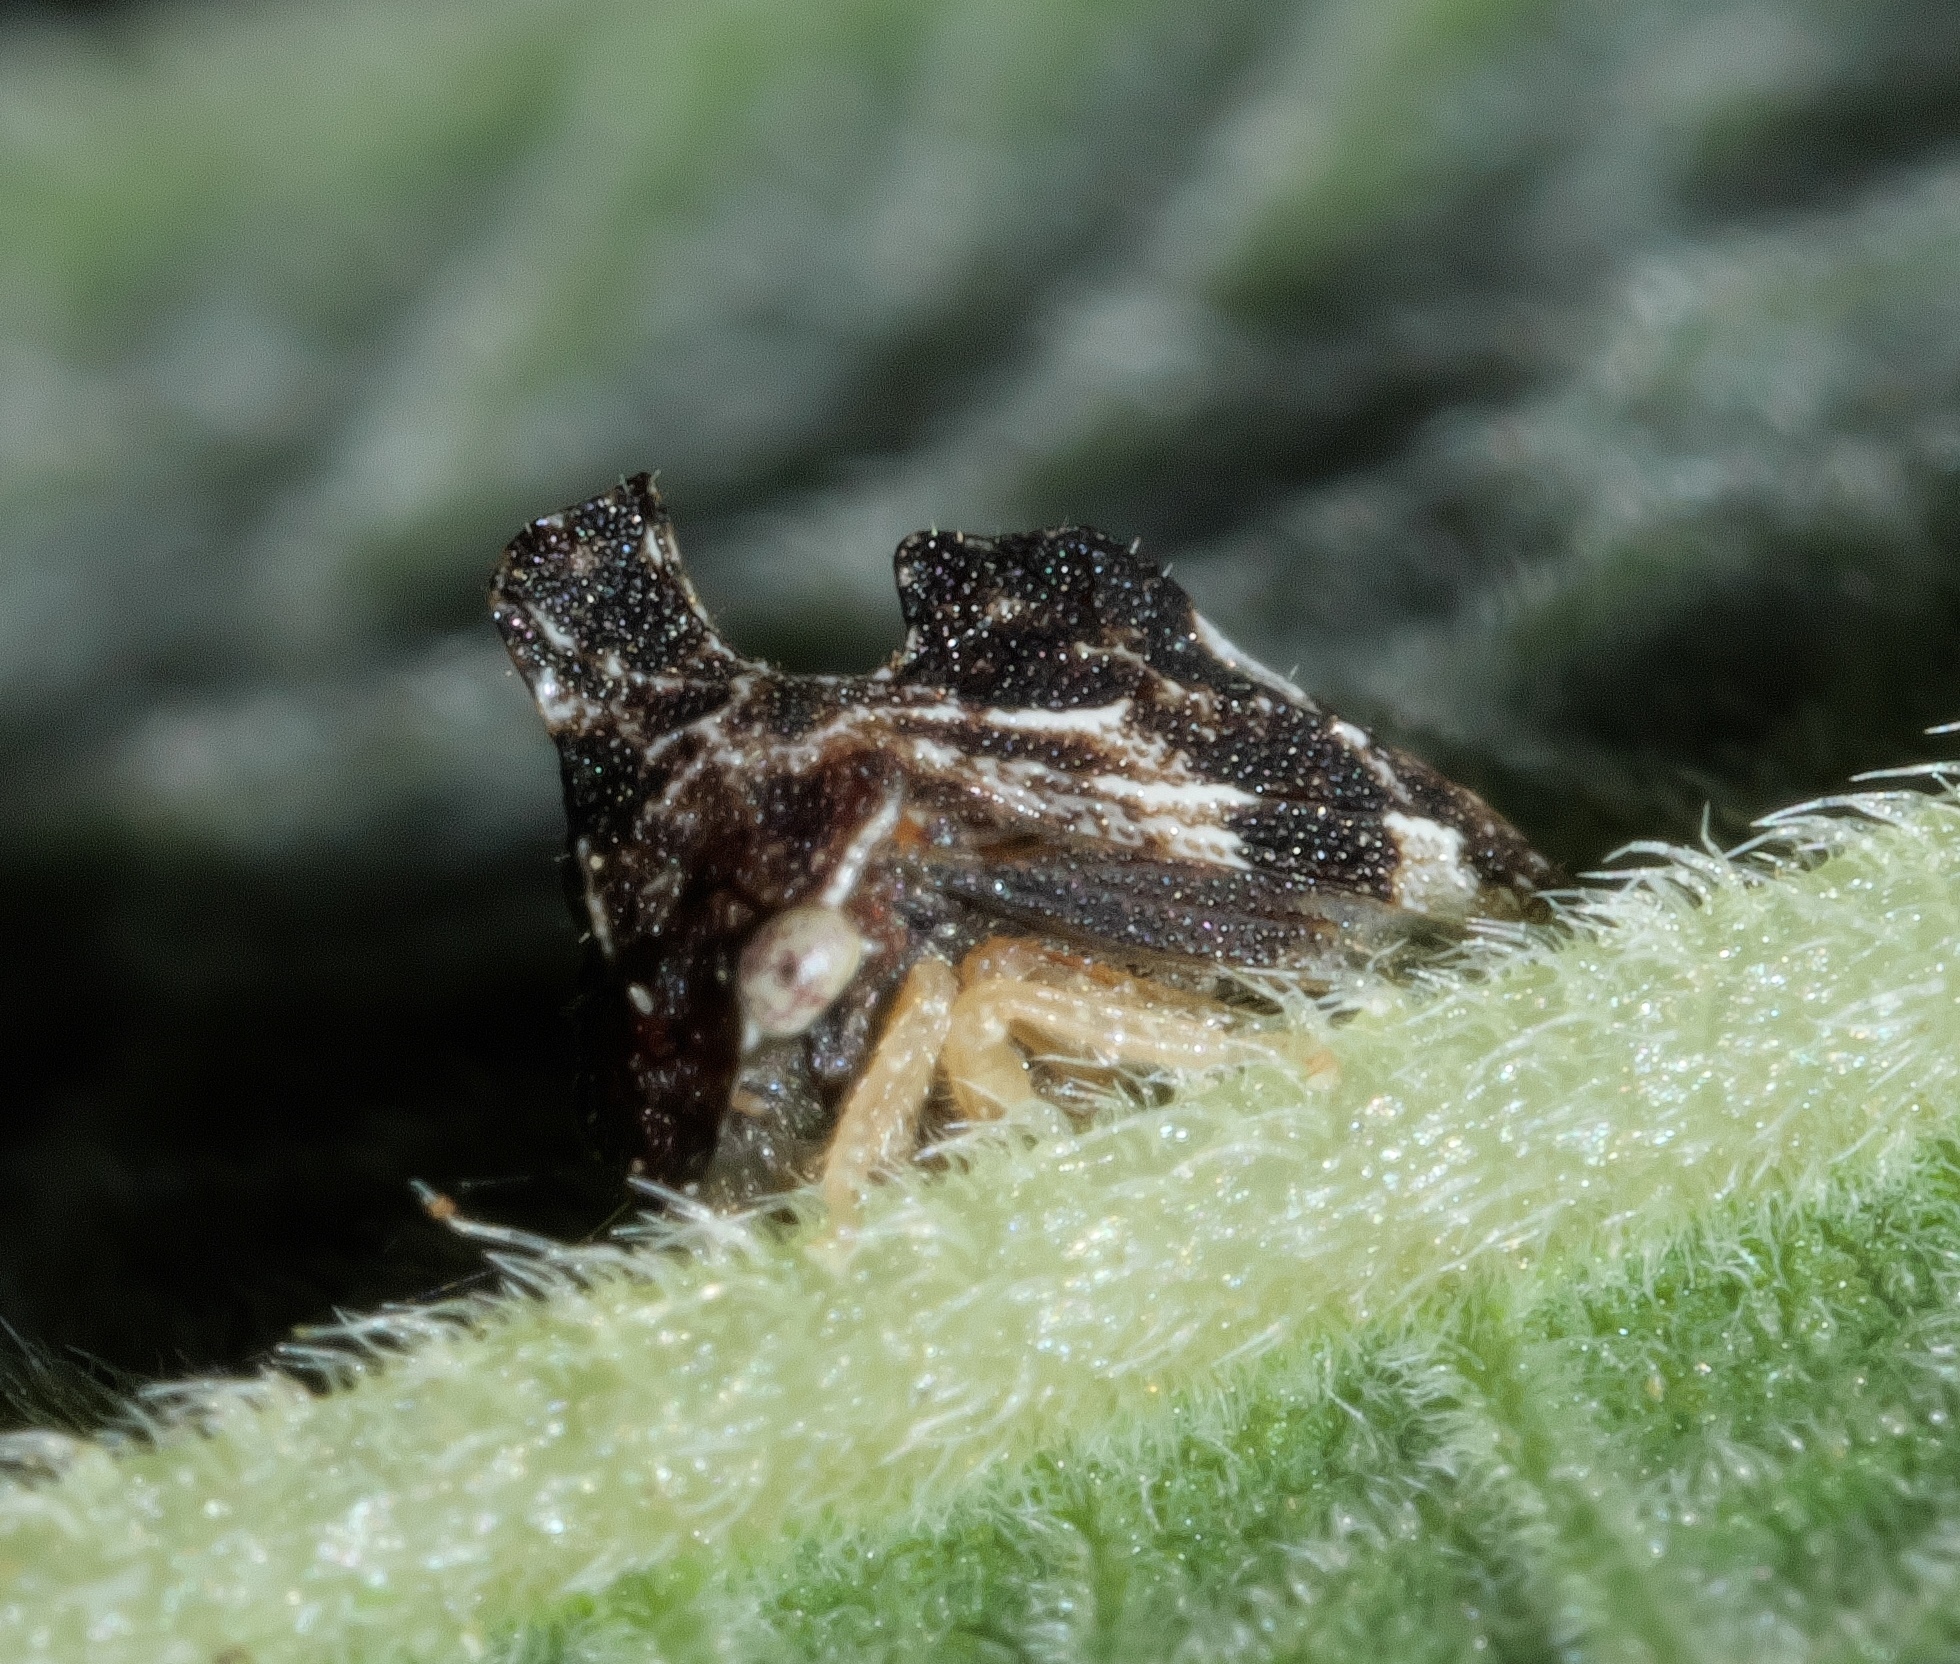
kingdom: Animalia
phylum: Arthropoda
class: Insecta
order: Hemiptera
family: Membracidae
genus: Entylia
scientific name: Entylia carinata
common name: Keeled treehopper
